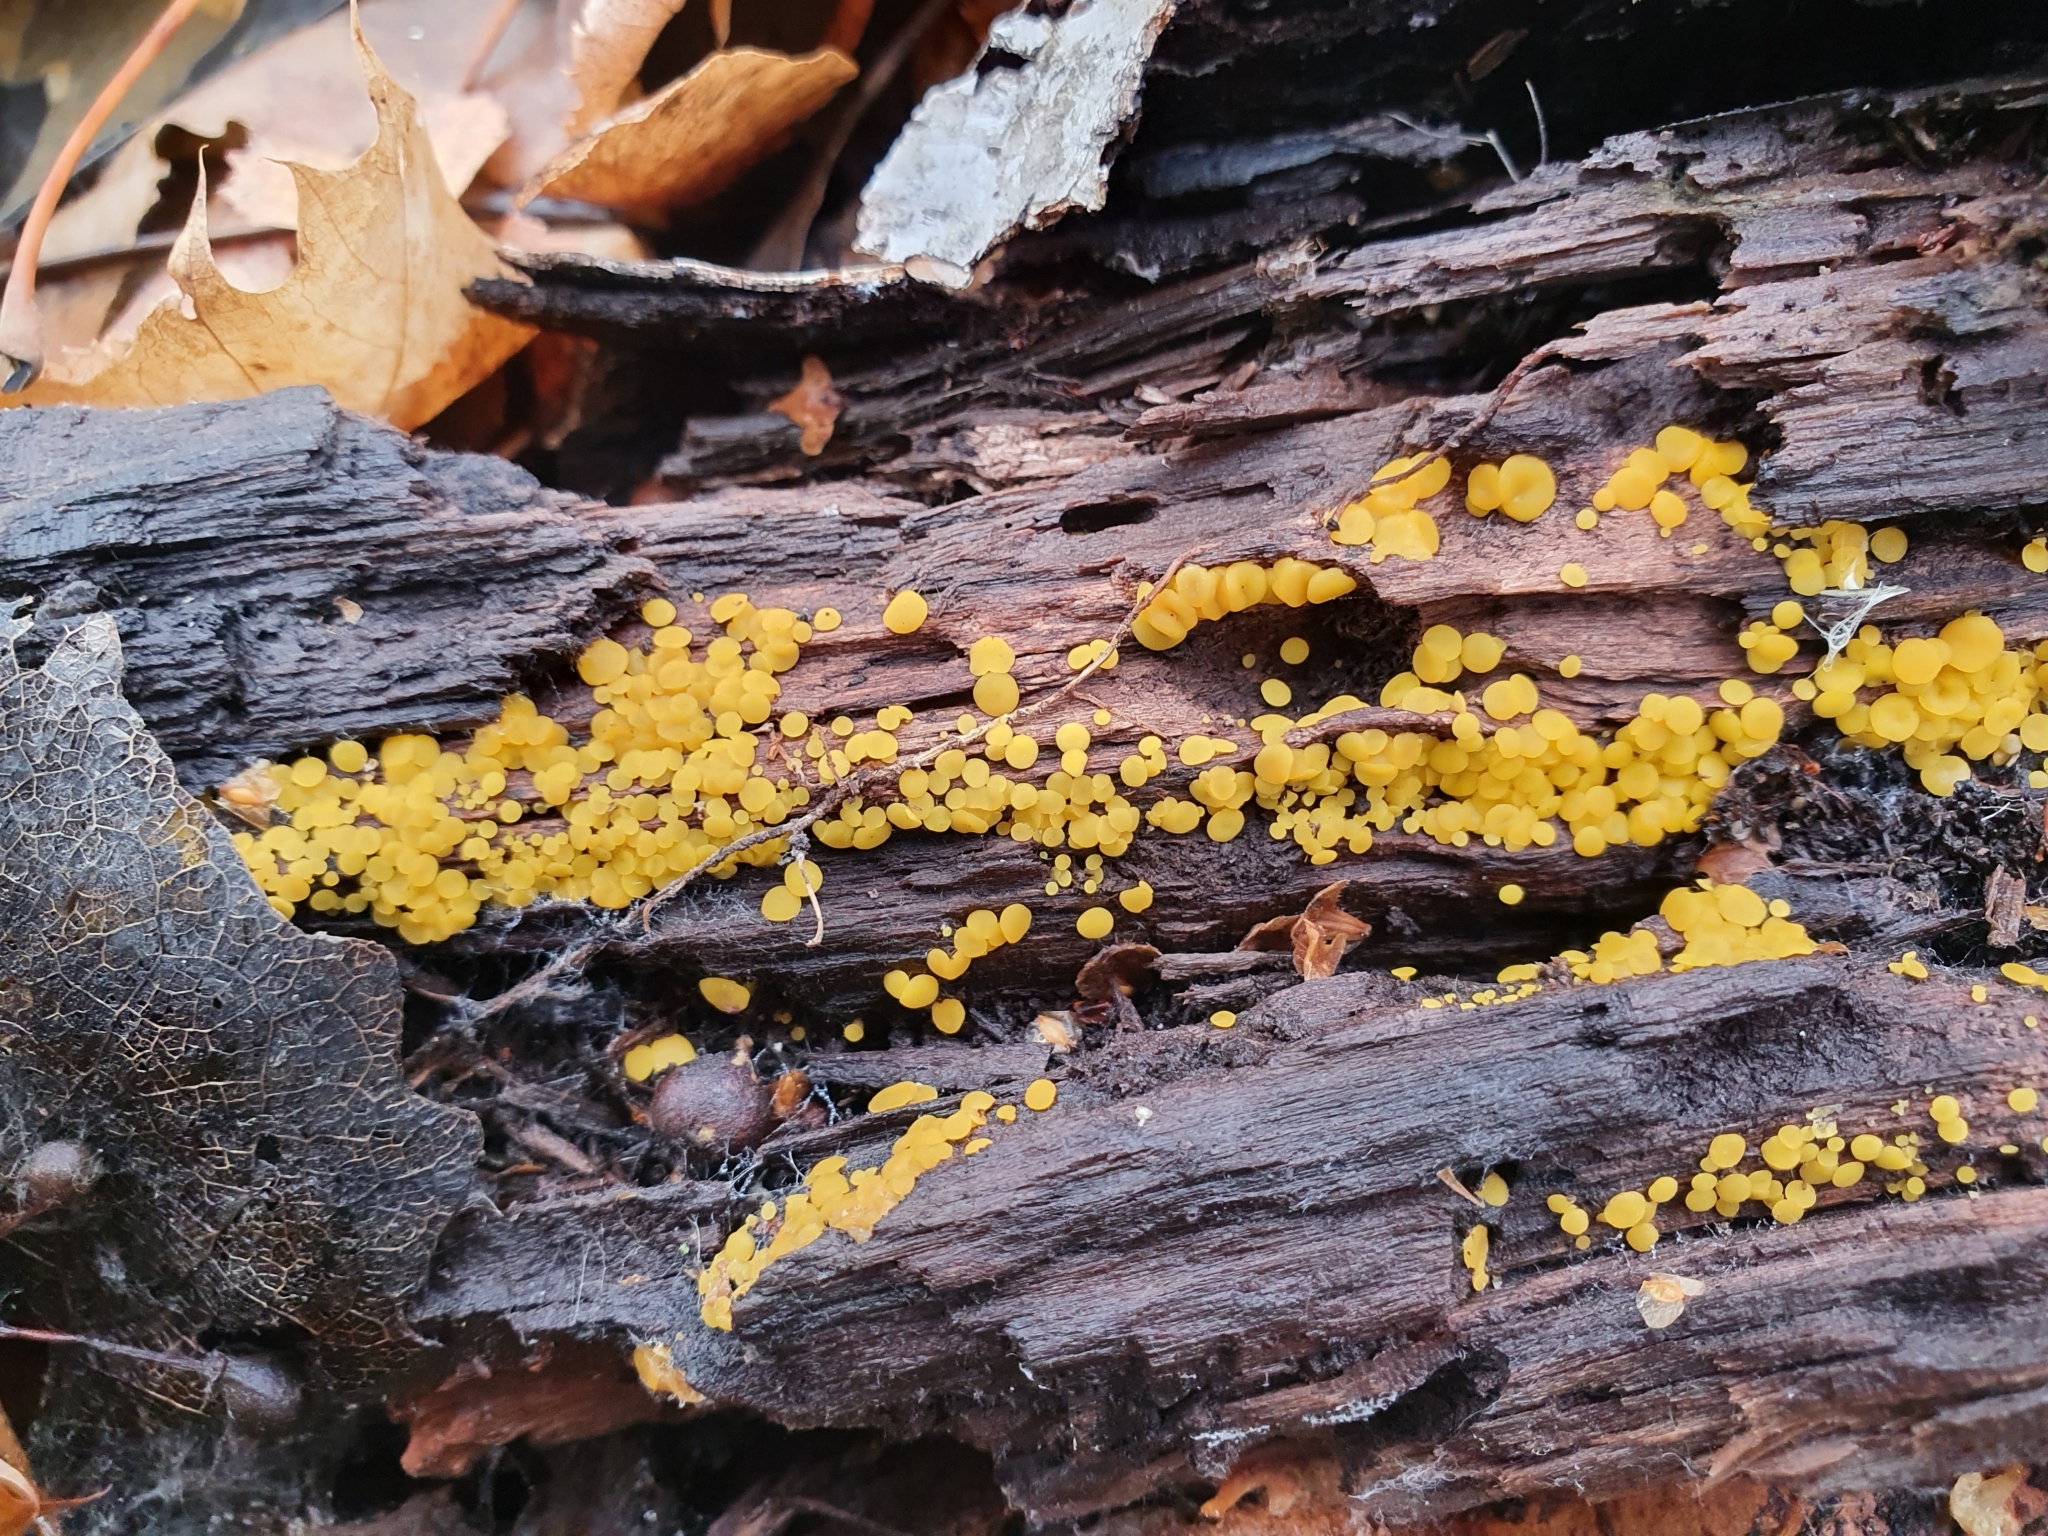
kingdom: Fungi
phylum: Ascomycota
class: Leotiomycetes
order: Helotiales
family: Pezizellaceae
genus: Calycina
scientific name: Calycina citrina
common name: Yellow fairy cups
